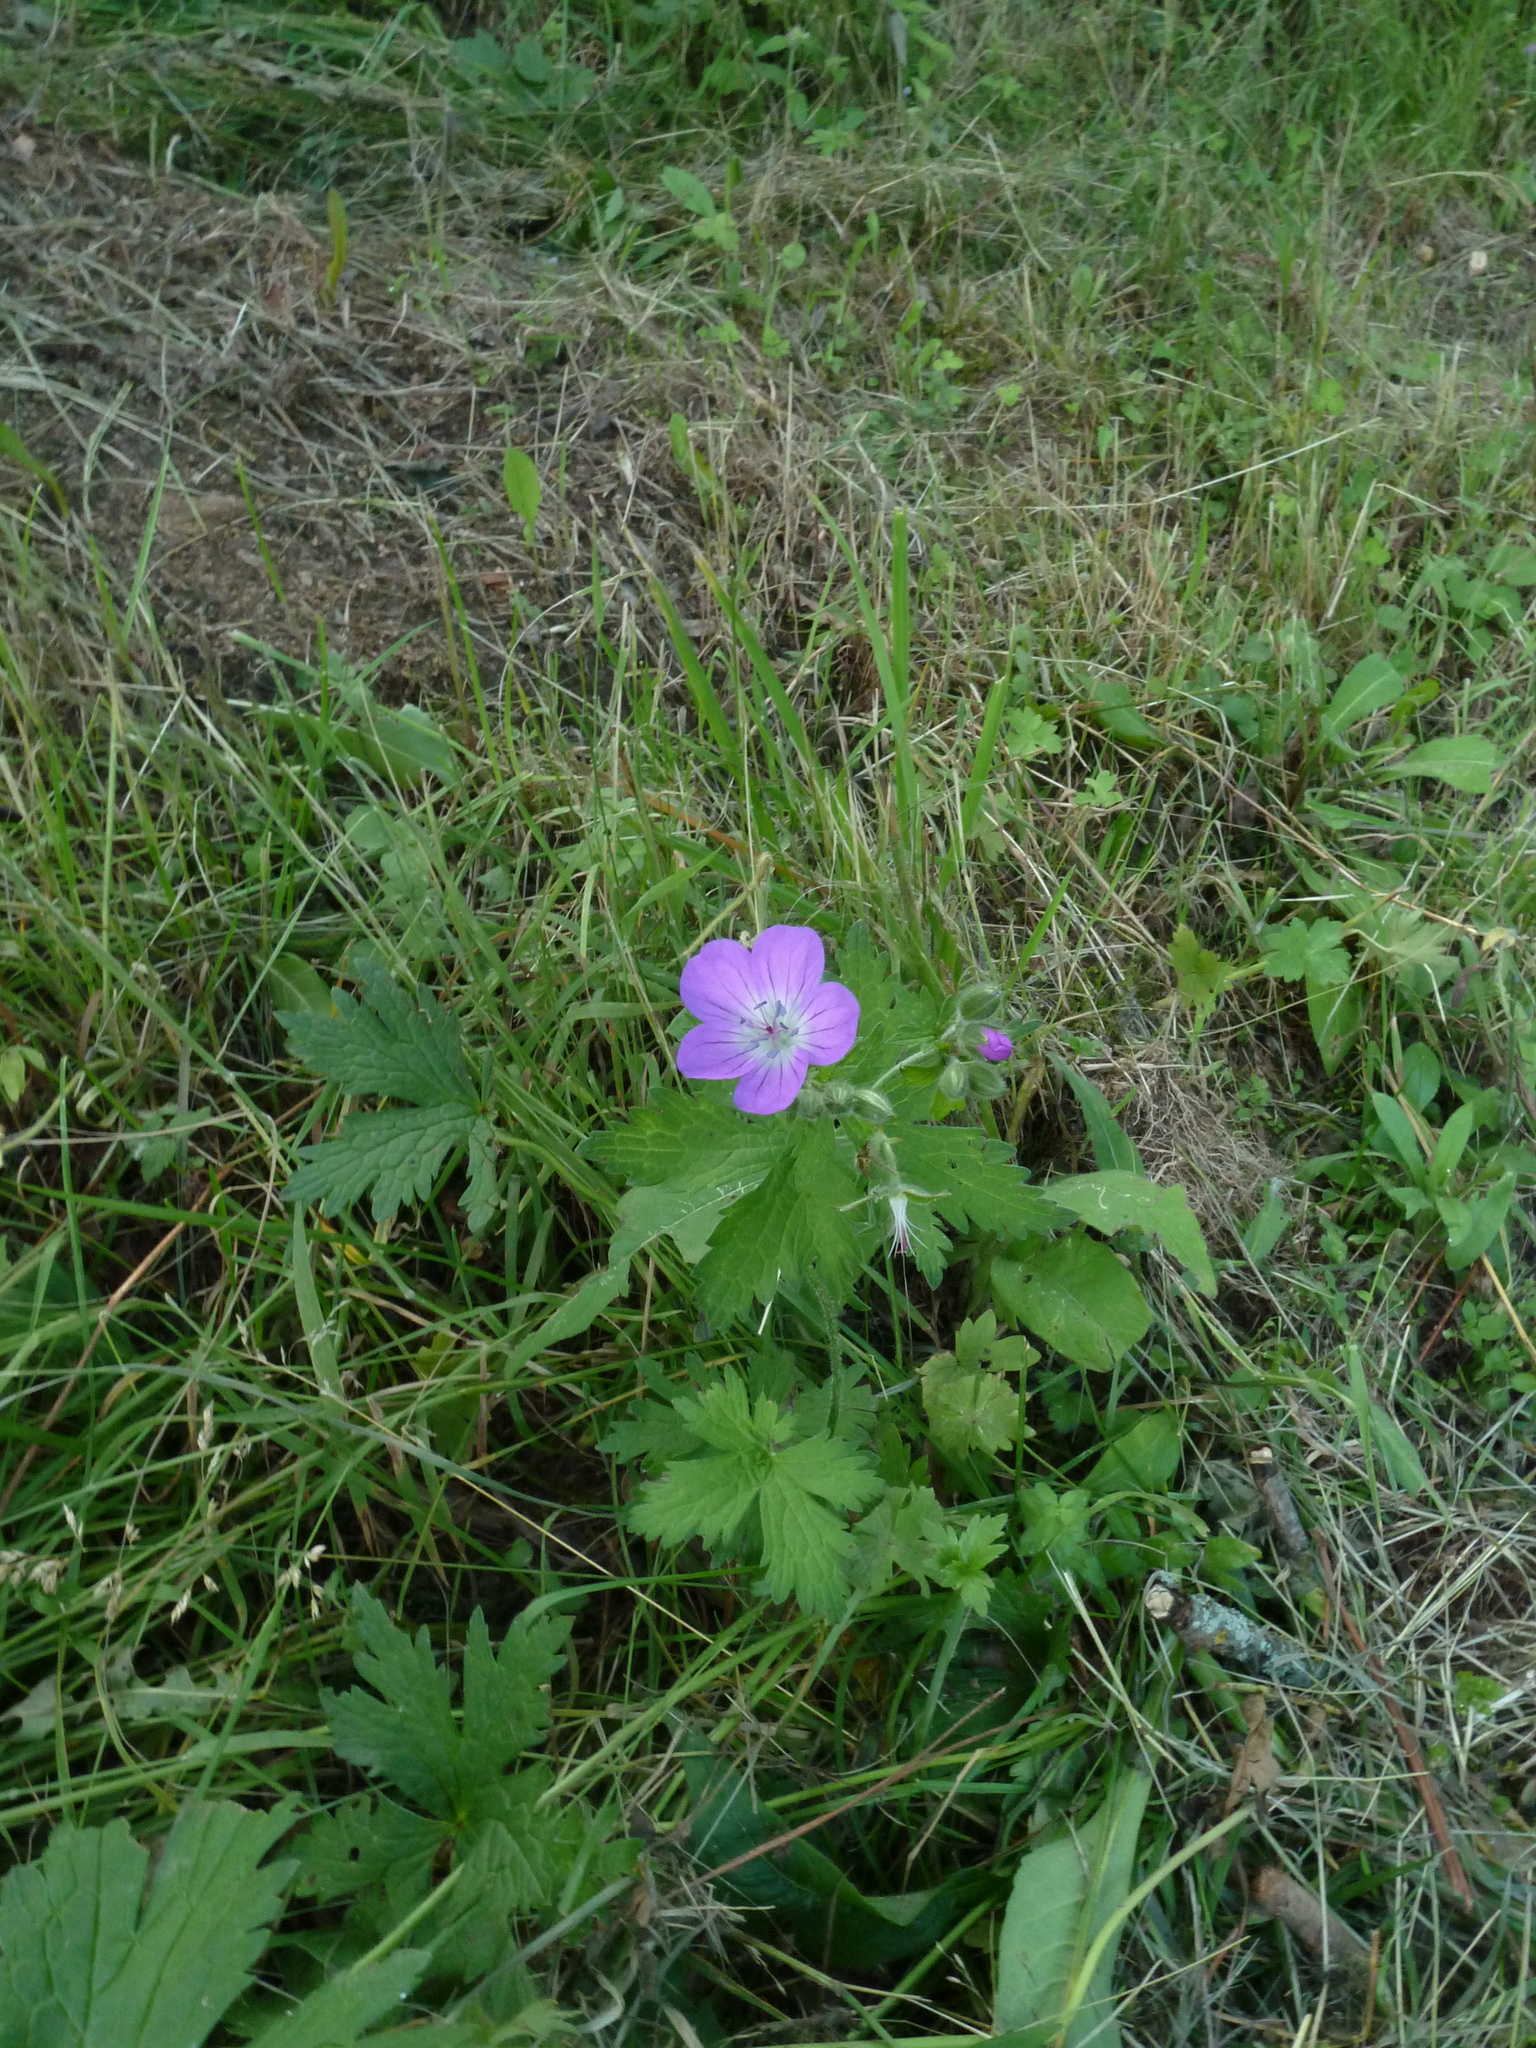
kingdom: Plantae
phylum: Tracheophyta
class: Magnoliopsida
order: Geraniales
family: Geraniaceae
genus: Geranium
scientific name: Geranium sylvaticum
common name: Wood crane's-bill
